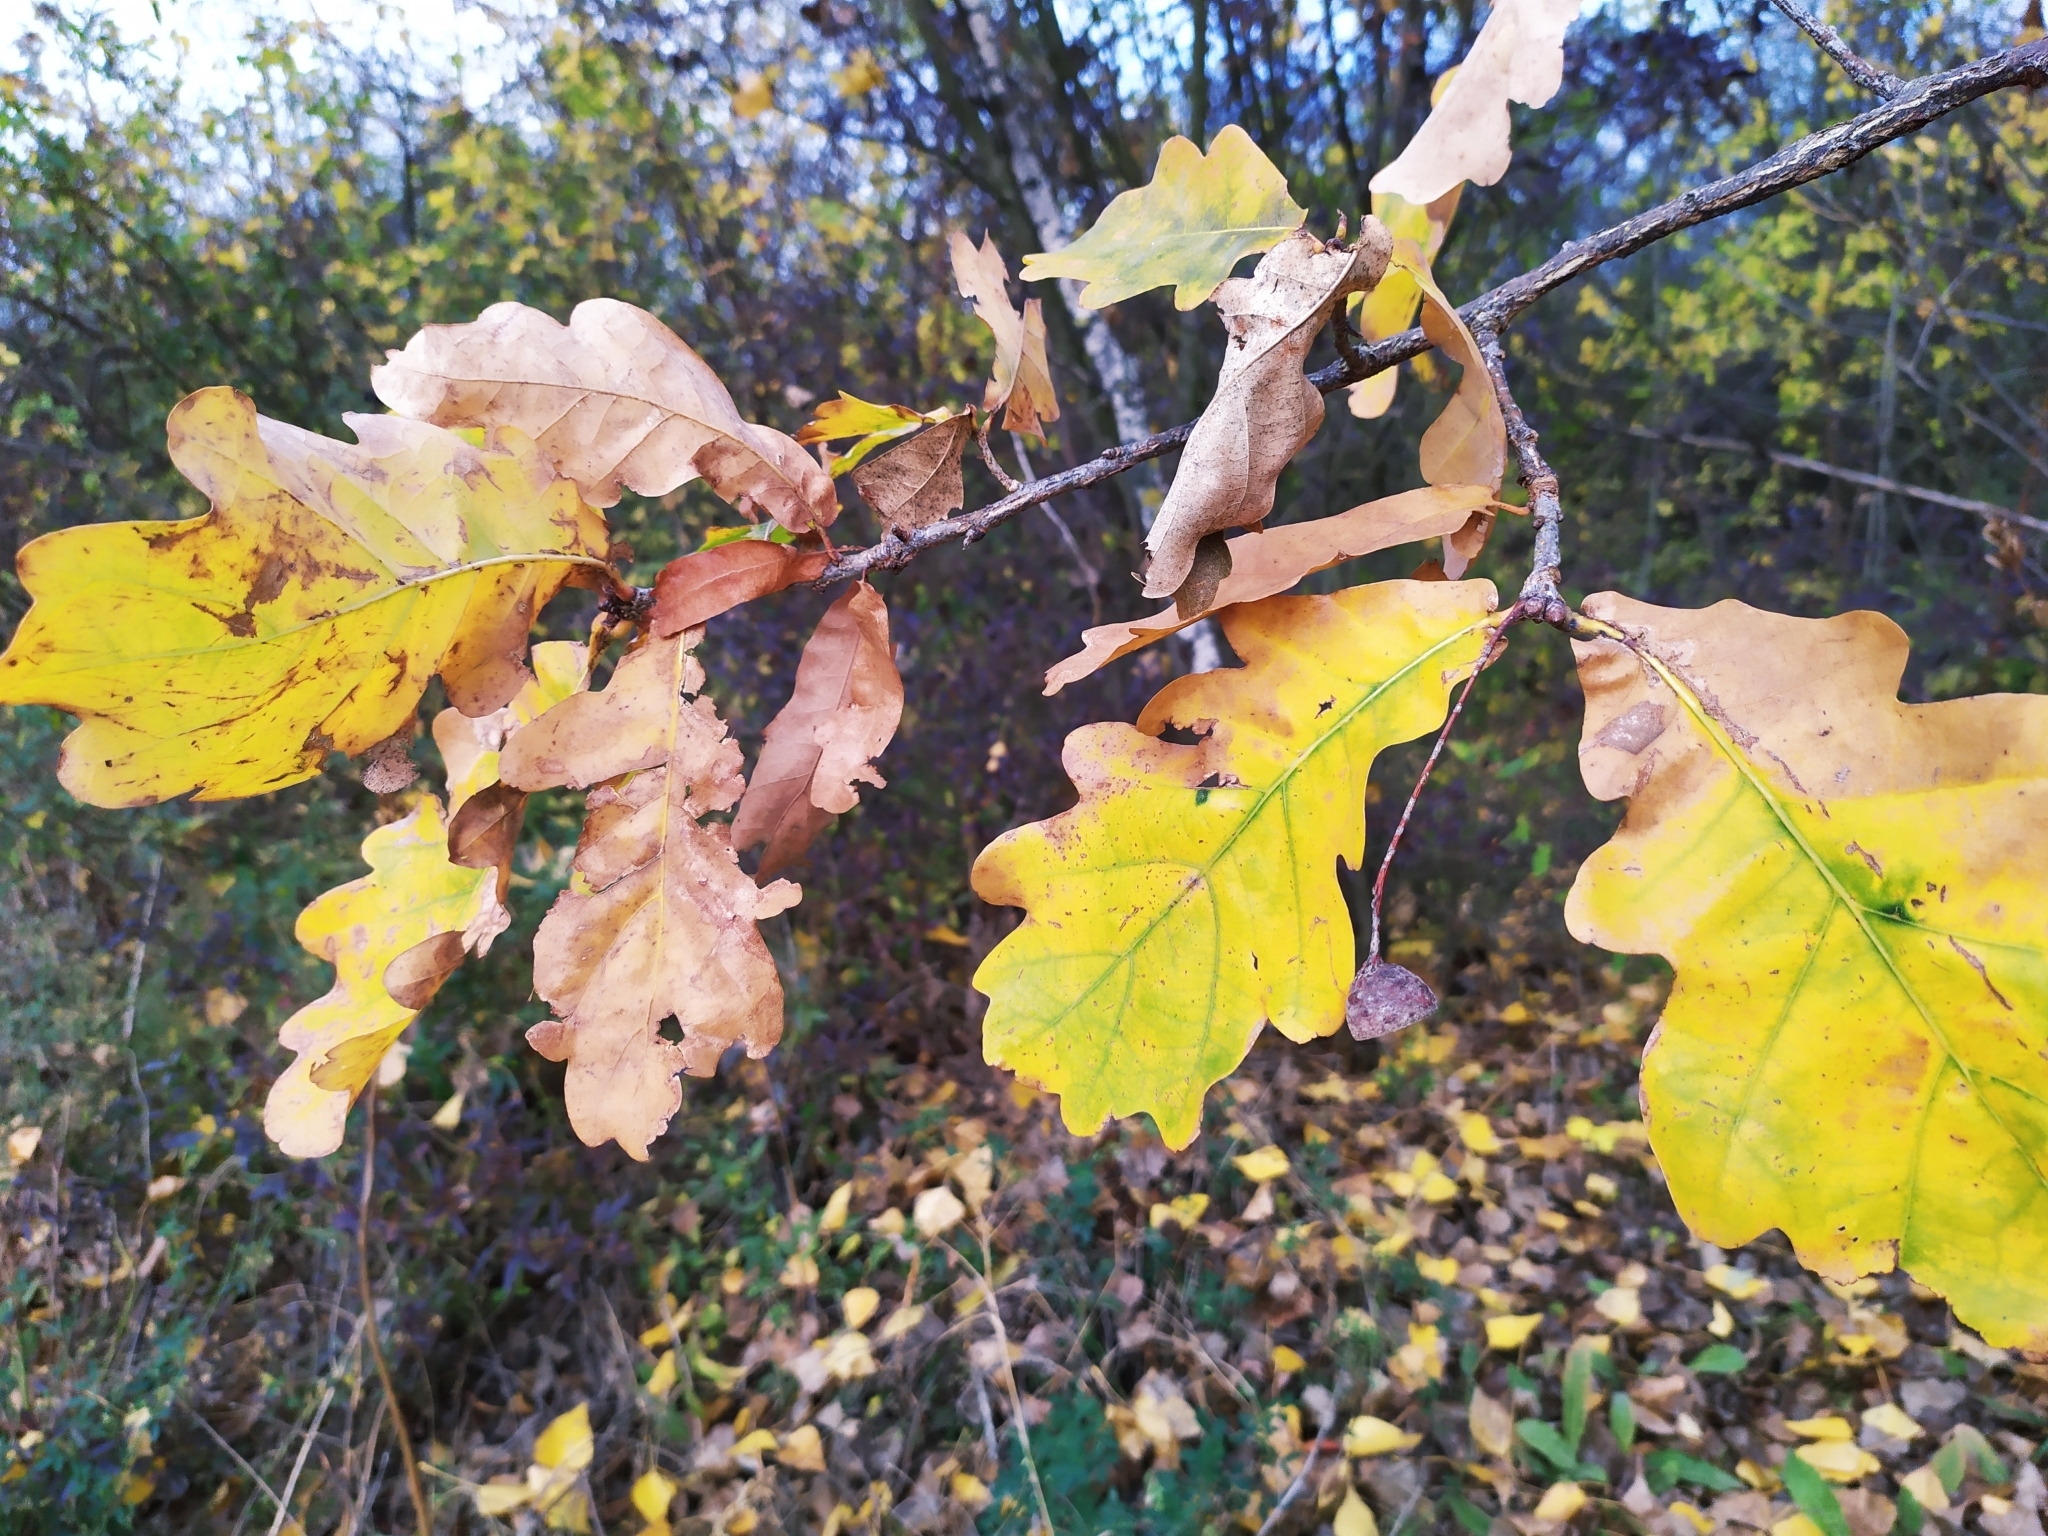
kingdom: Plantae
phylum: Tracheophyta
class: Magnoliopsida
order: Fagales
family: Fagaceae
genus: Quercus
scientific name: Quercus robur
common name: Pedunculate oak
